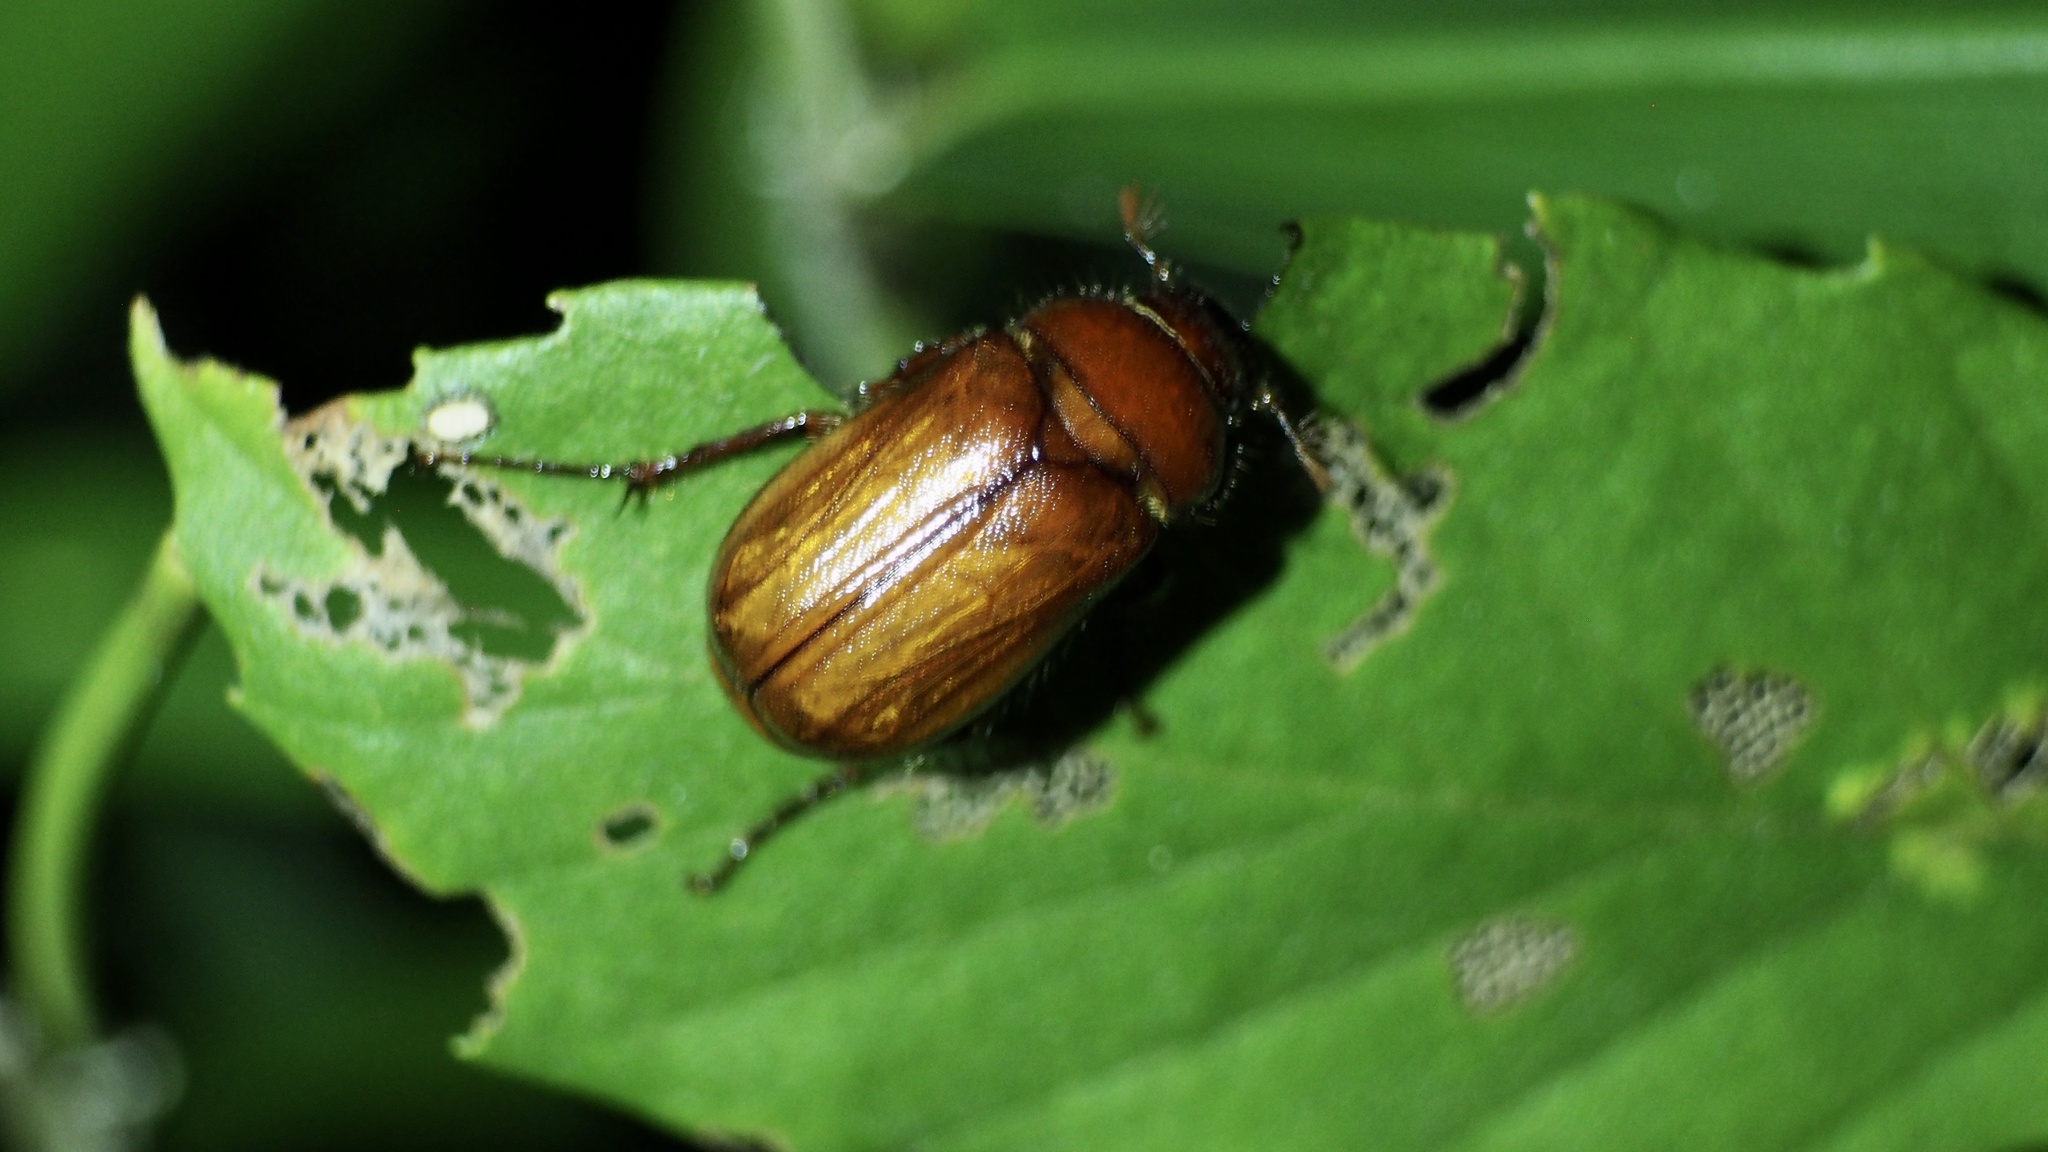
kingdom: Animalia
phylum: Arthropoda
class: Insecta
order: Coleoptera
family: Scarabaeidae
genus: Heptophylla
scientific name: Heptophylla picea
